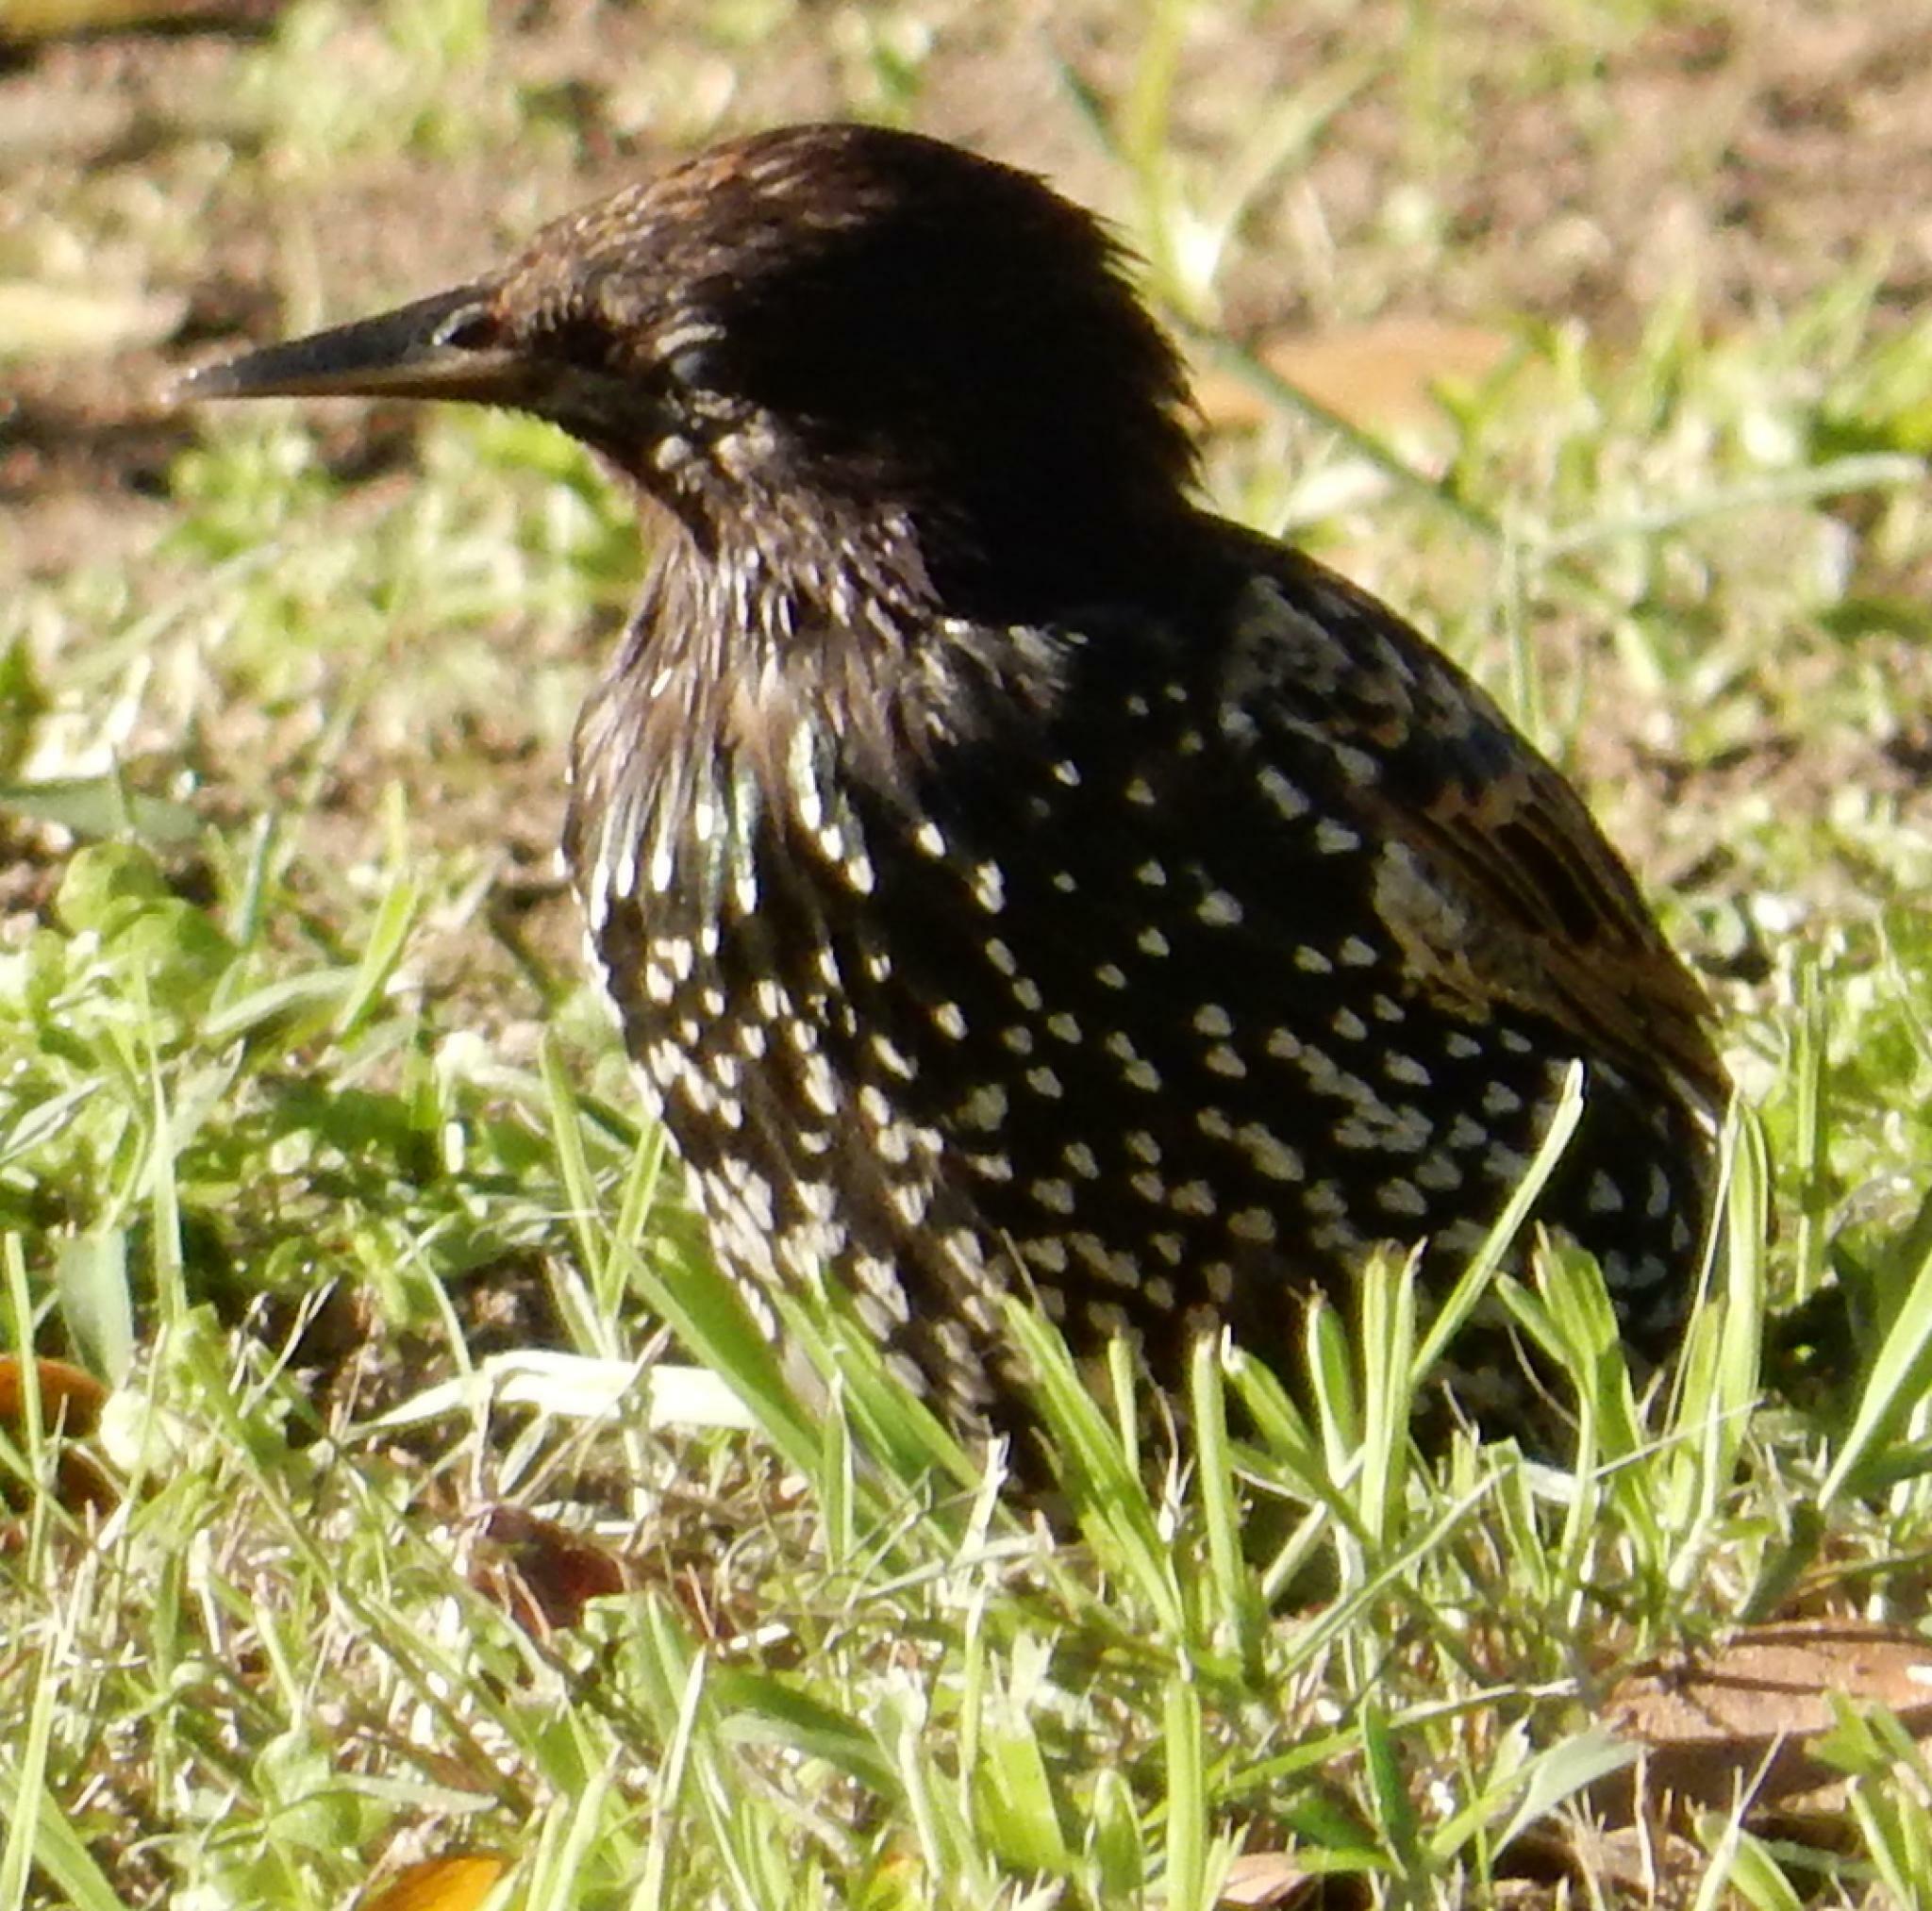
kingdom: Animalia
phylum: Chordata
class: Aves
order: Passeriformes
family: Sturnidae
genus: Sturnus
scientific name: Sturnus vulgaris
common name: Common starling
